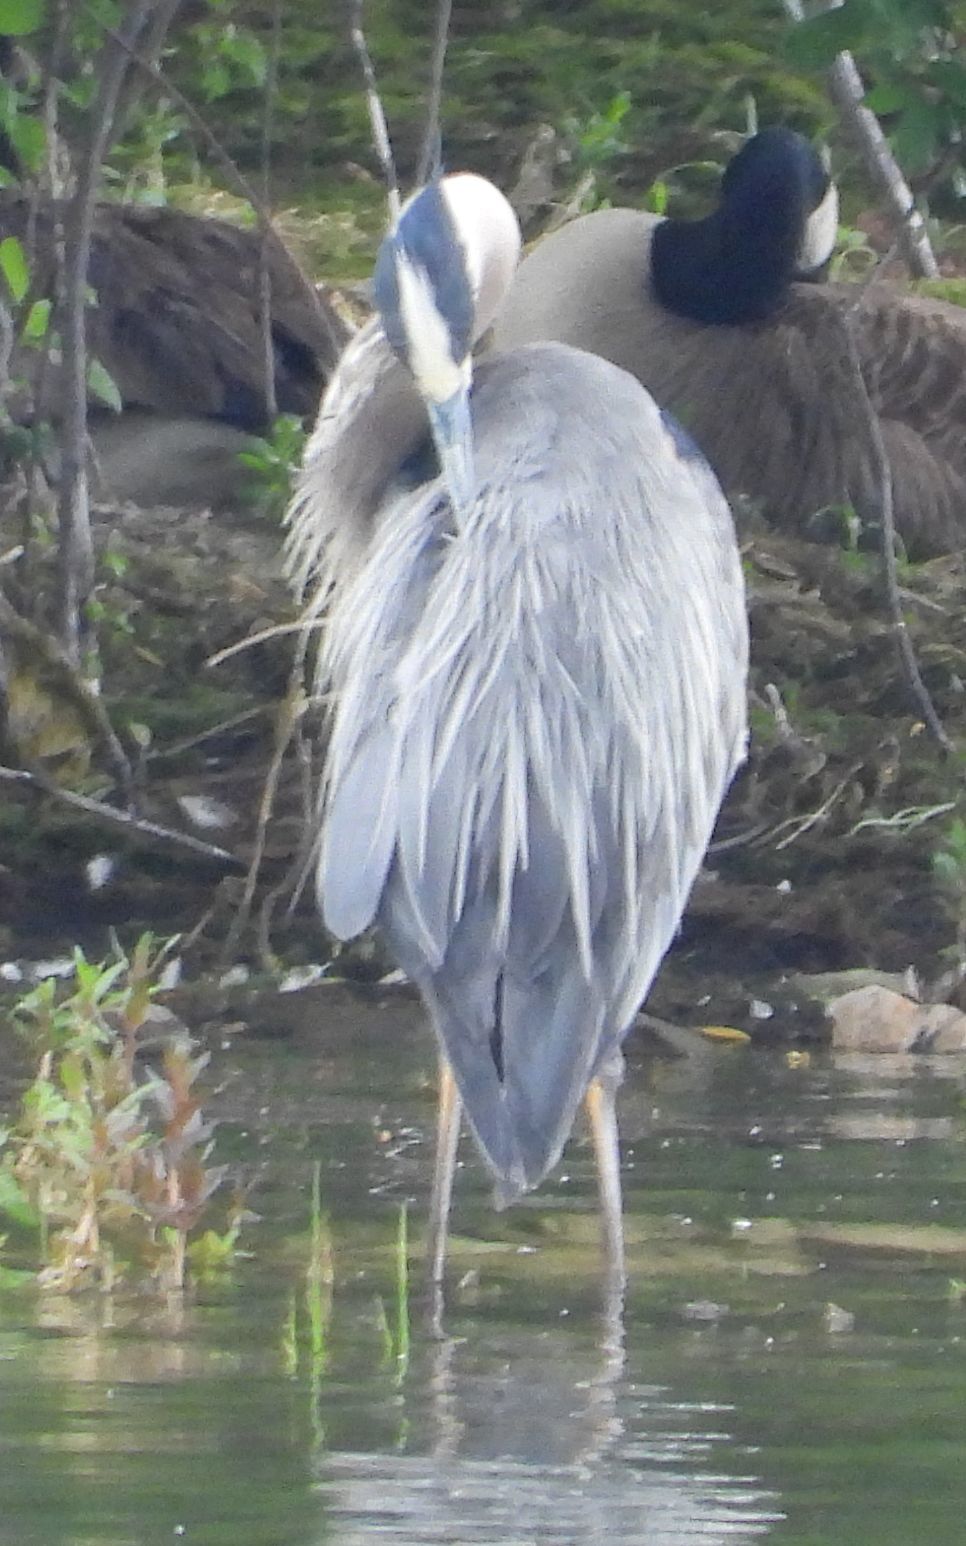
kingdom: Animalia
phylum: Chordata
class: Aves
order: Pelecaniformes
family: Ardeidae
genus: Ardea
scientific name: Ardea herodias
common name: Great blue heron
